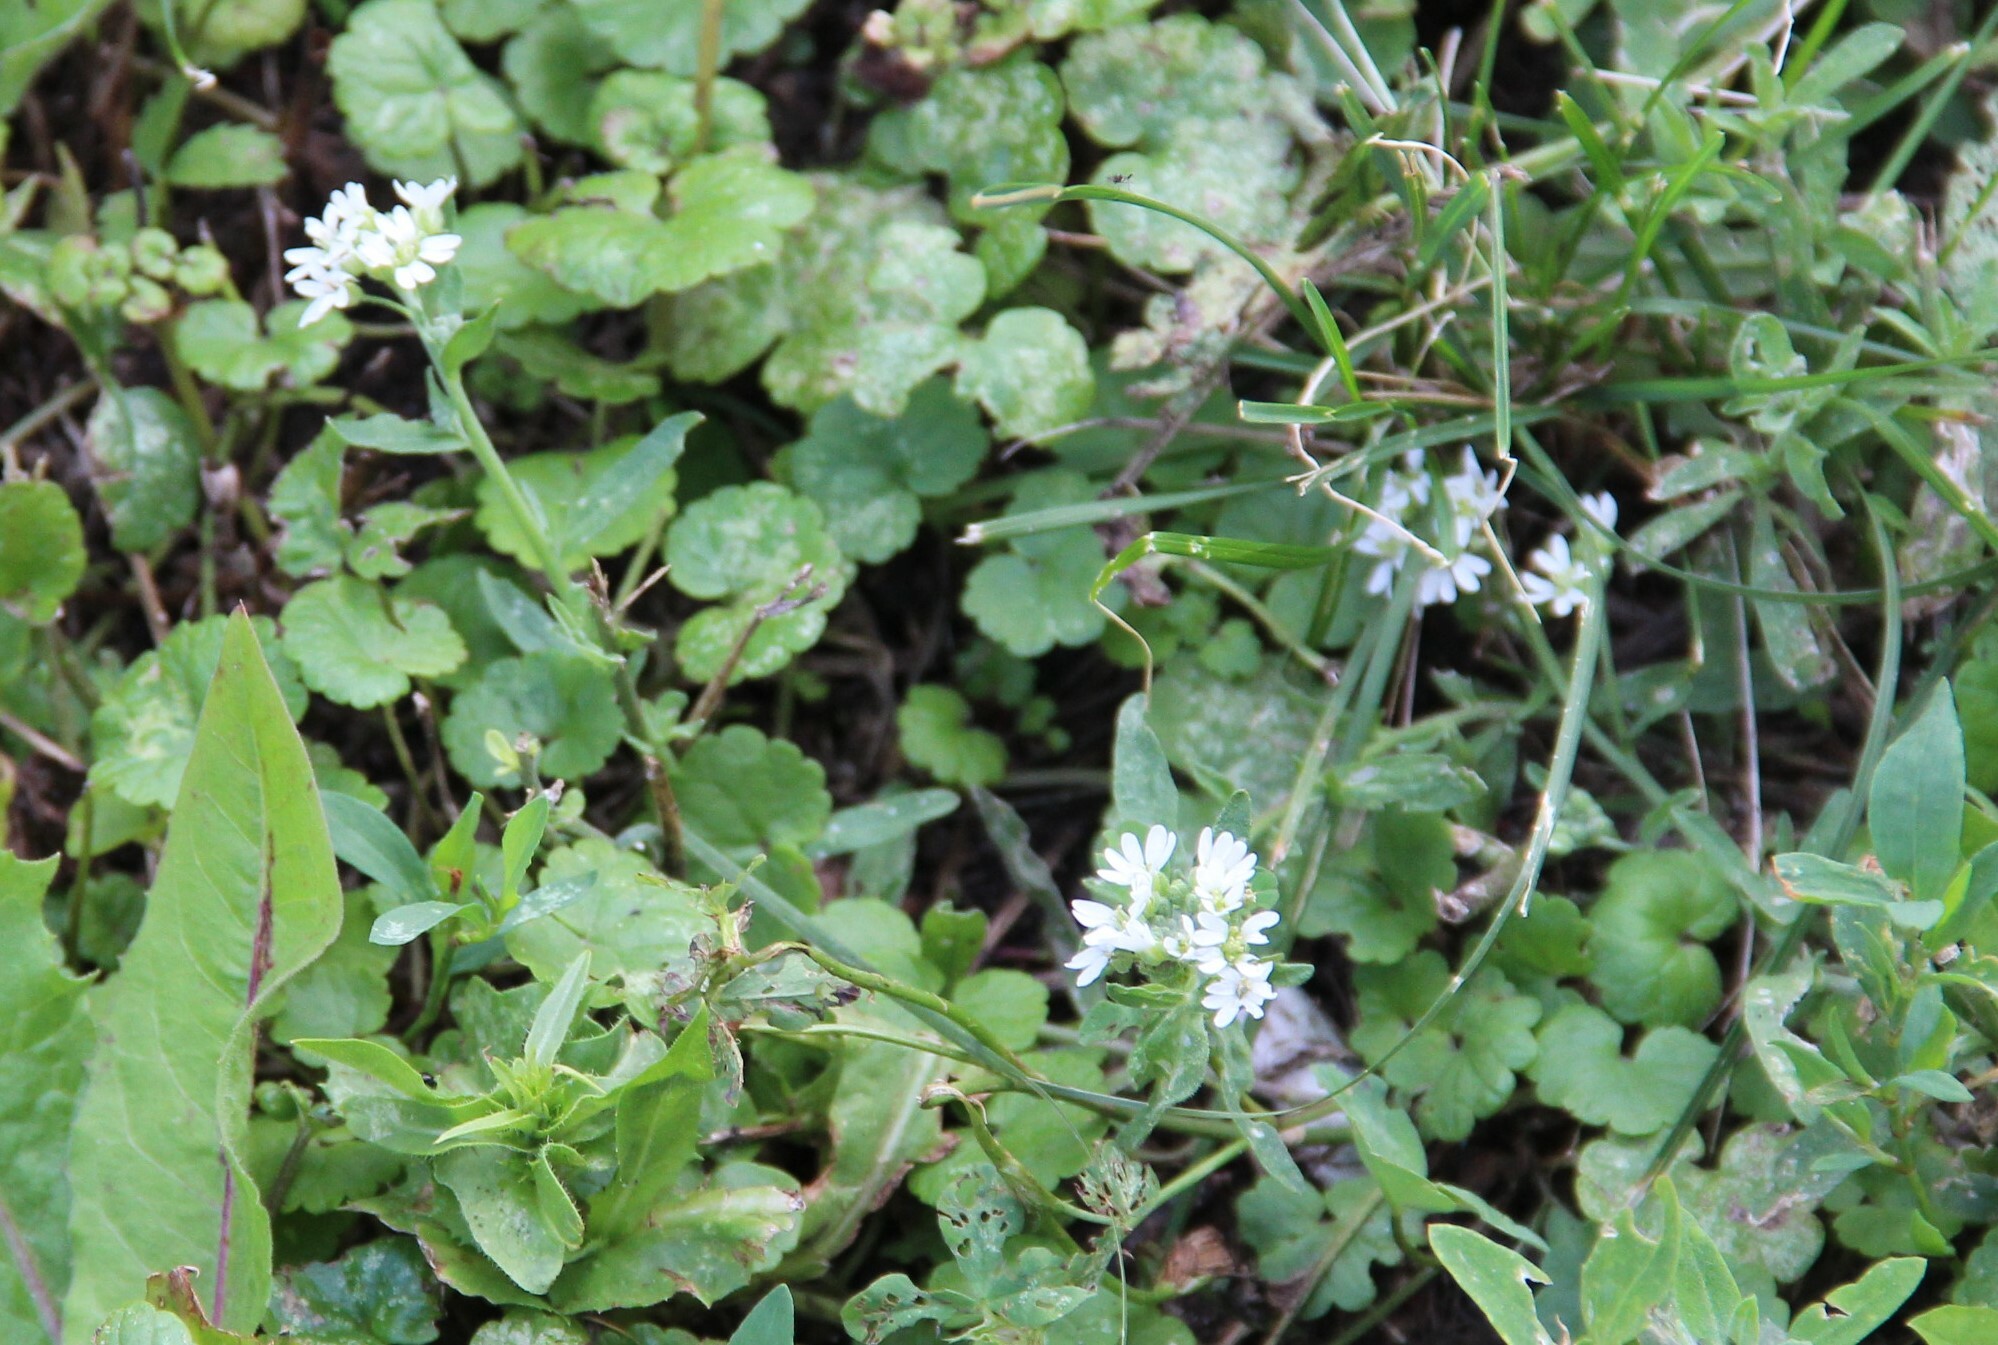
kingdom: Plantae
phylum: Tracheophyta
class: Magnoliopsida
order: Brassicales
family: Brassicaceae
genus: Berteroa
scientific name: Berteroa incana
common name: Hoary alison
